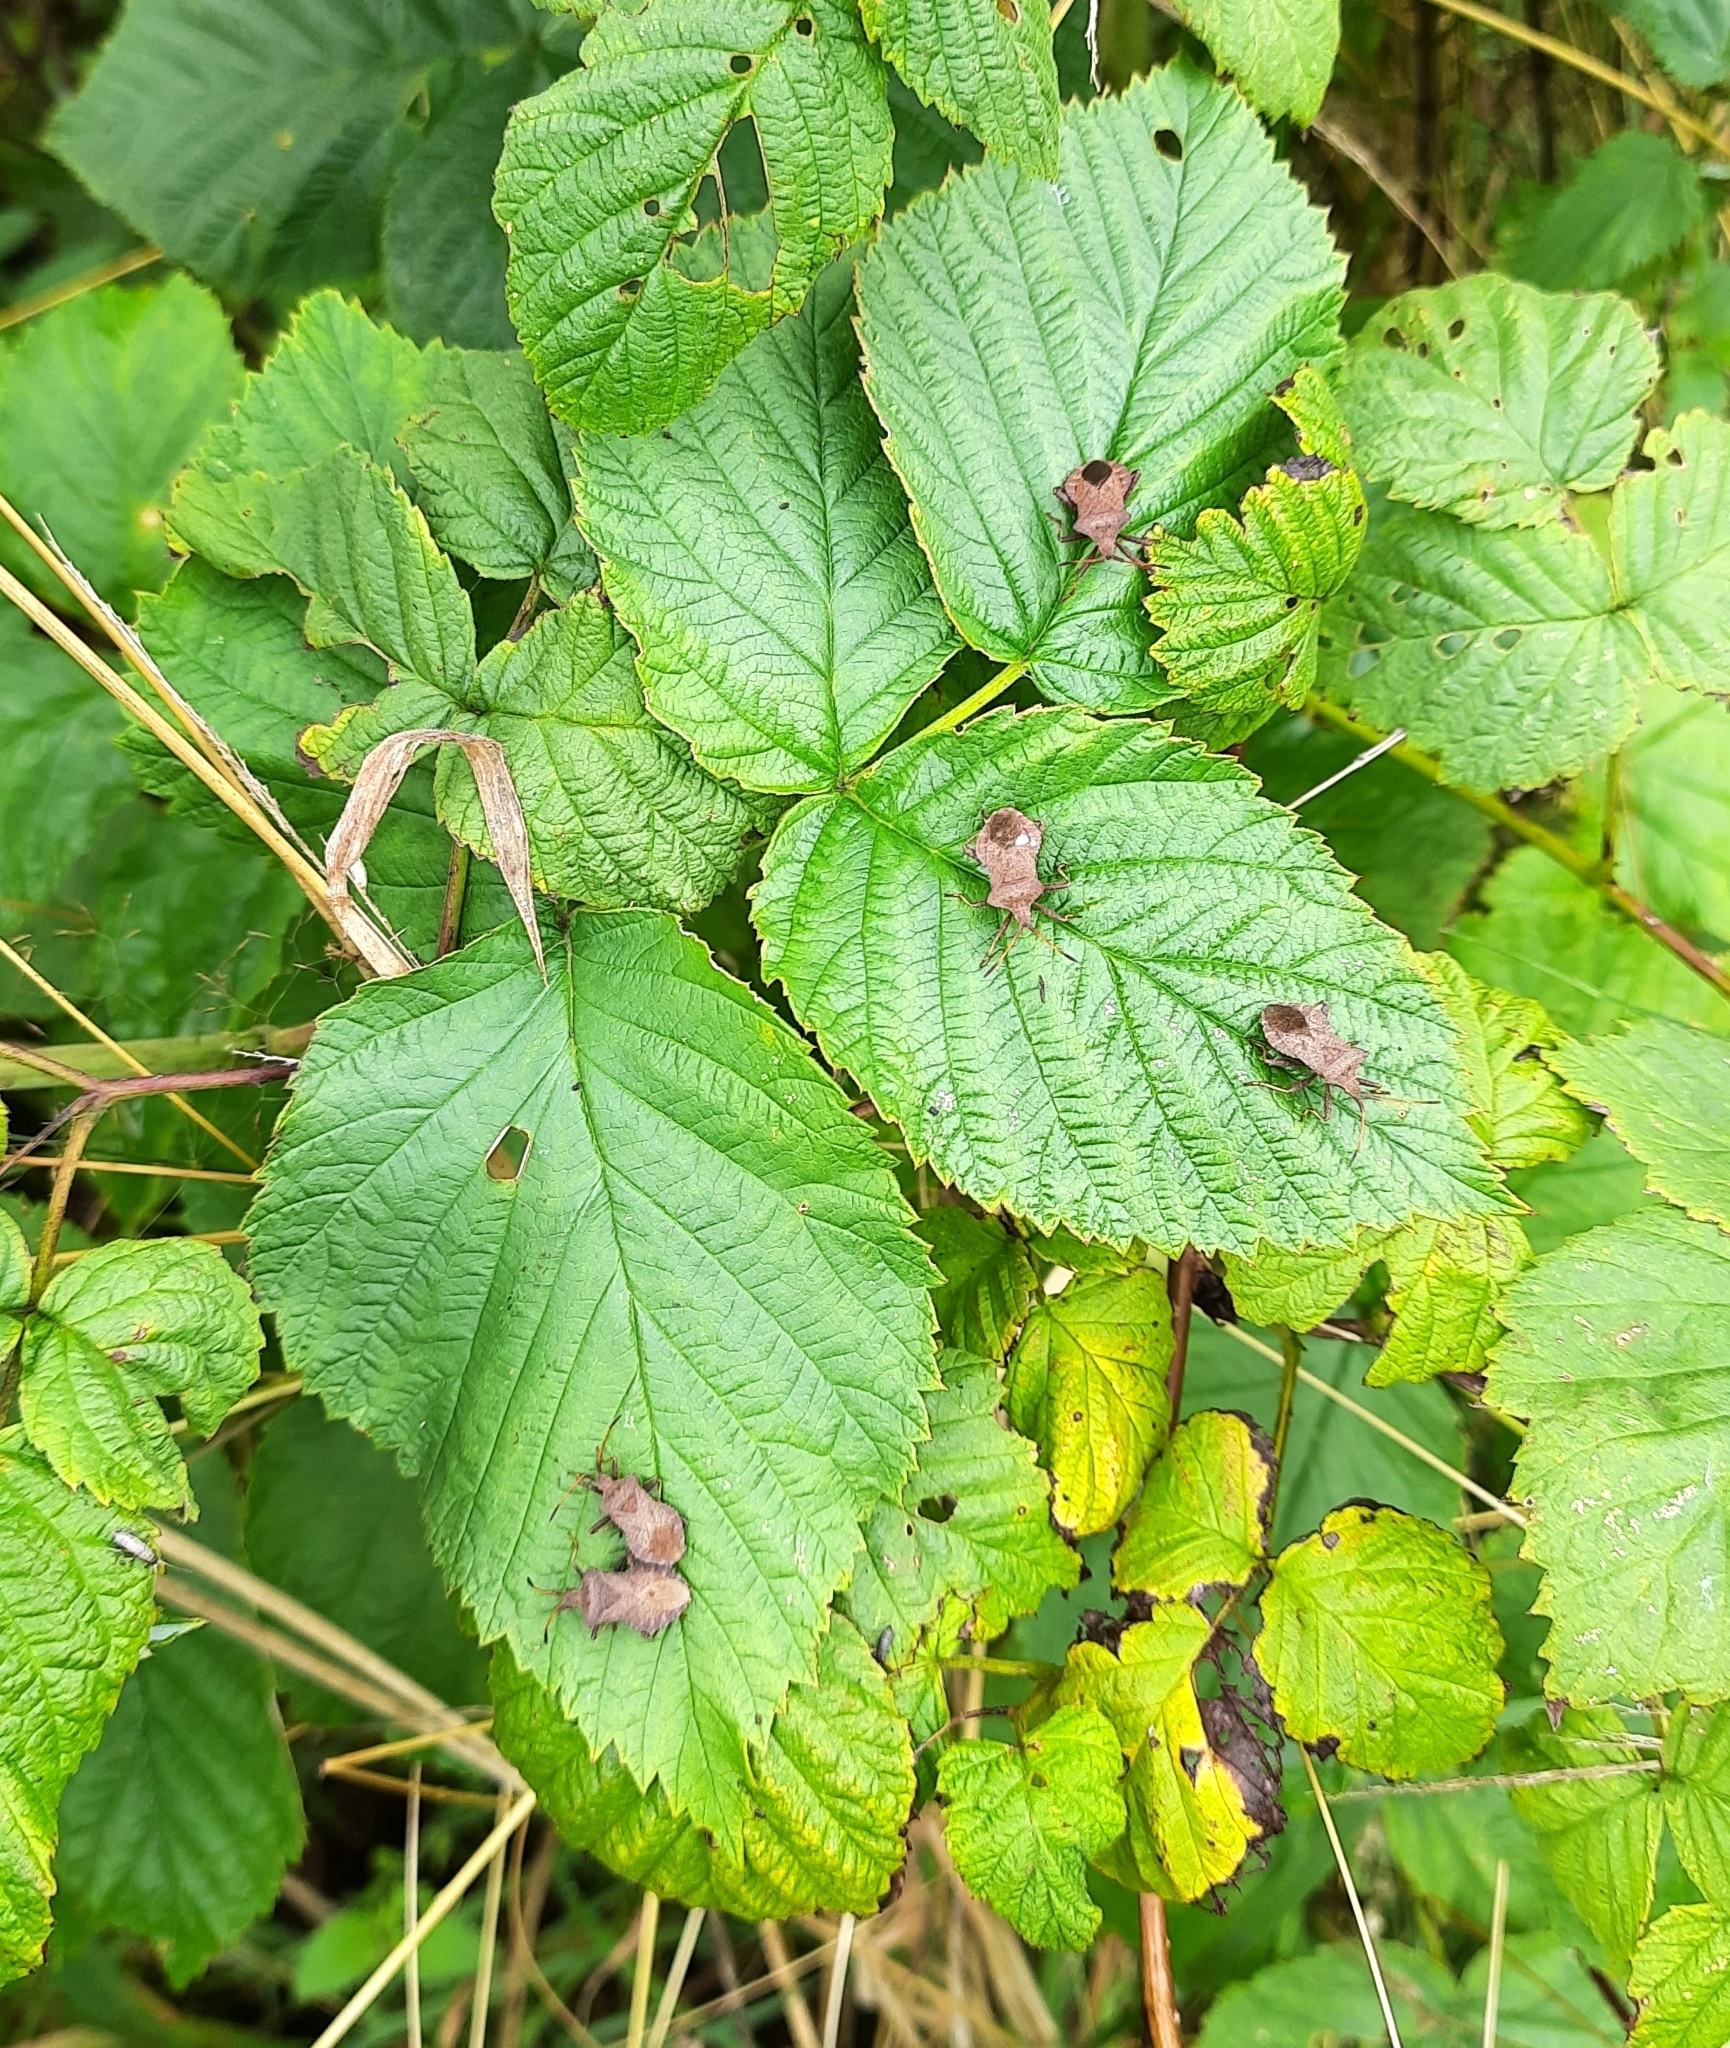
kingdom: Animalia
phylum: Arthropoda
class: Insecta
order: Hemiptera
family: Coreidae
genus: Coreus
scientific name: Coreus marginatus
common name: Dock bug
